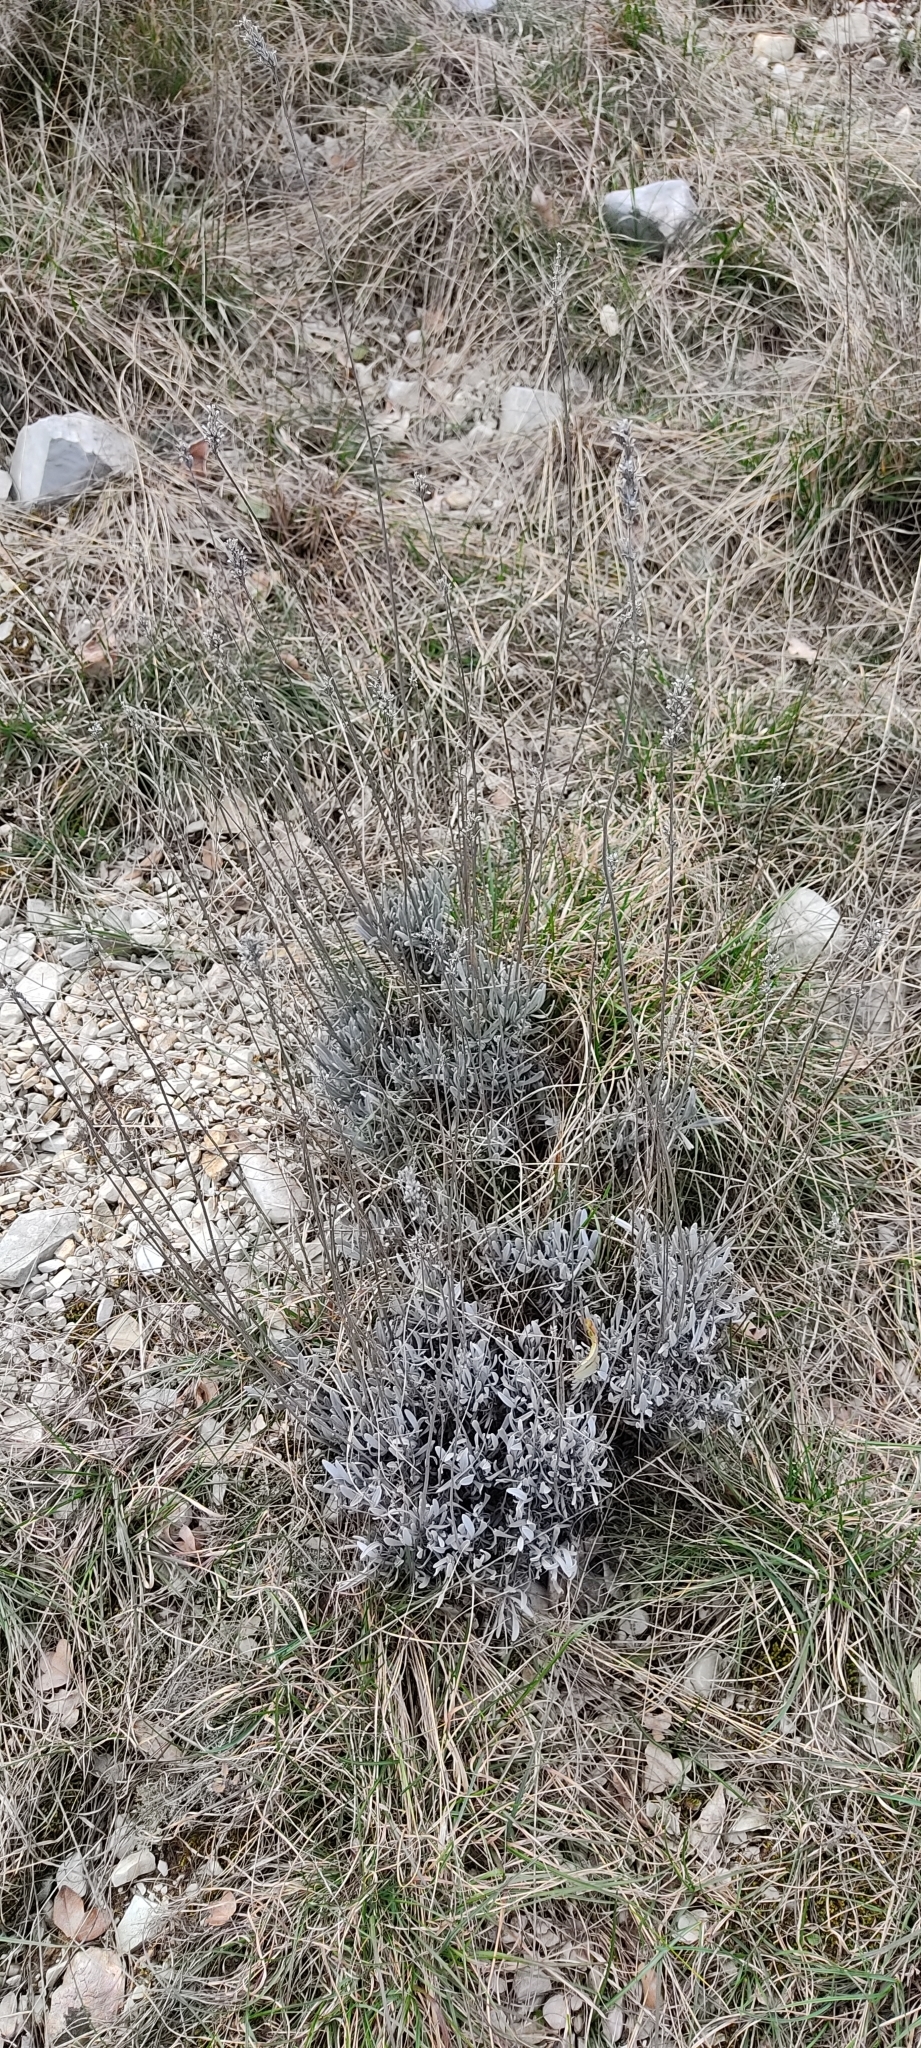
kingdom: Plantae
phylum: Tracheophyta
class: Magnoliopsida
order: Lamiales
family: Lamiaceae
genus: Lavandula
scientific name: Lavandula latifolia
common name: Spike lavendar
